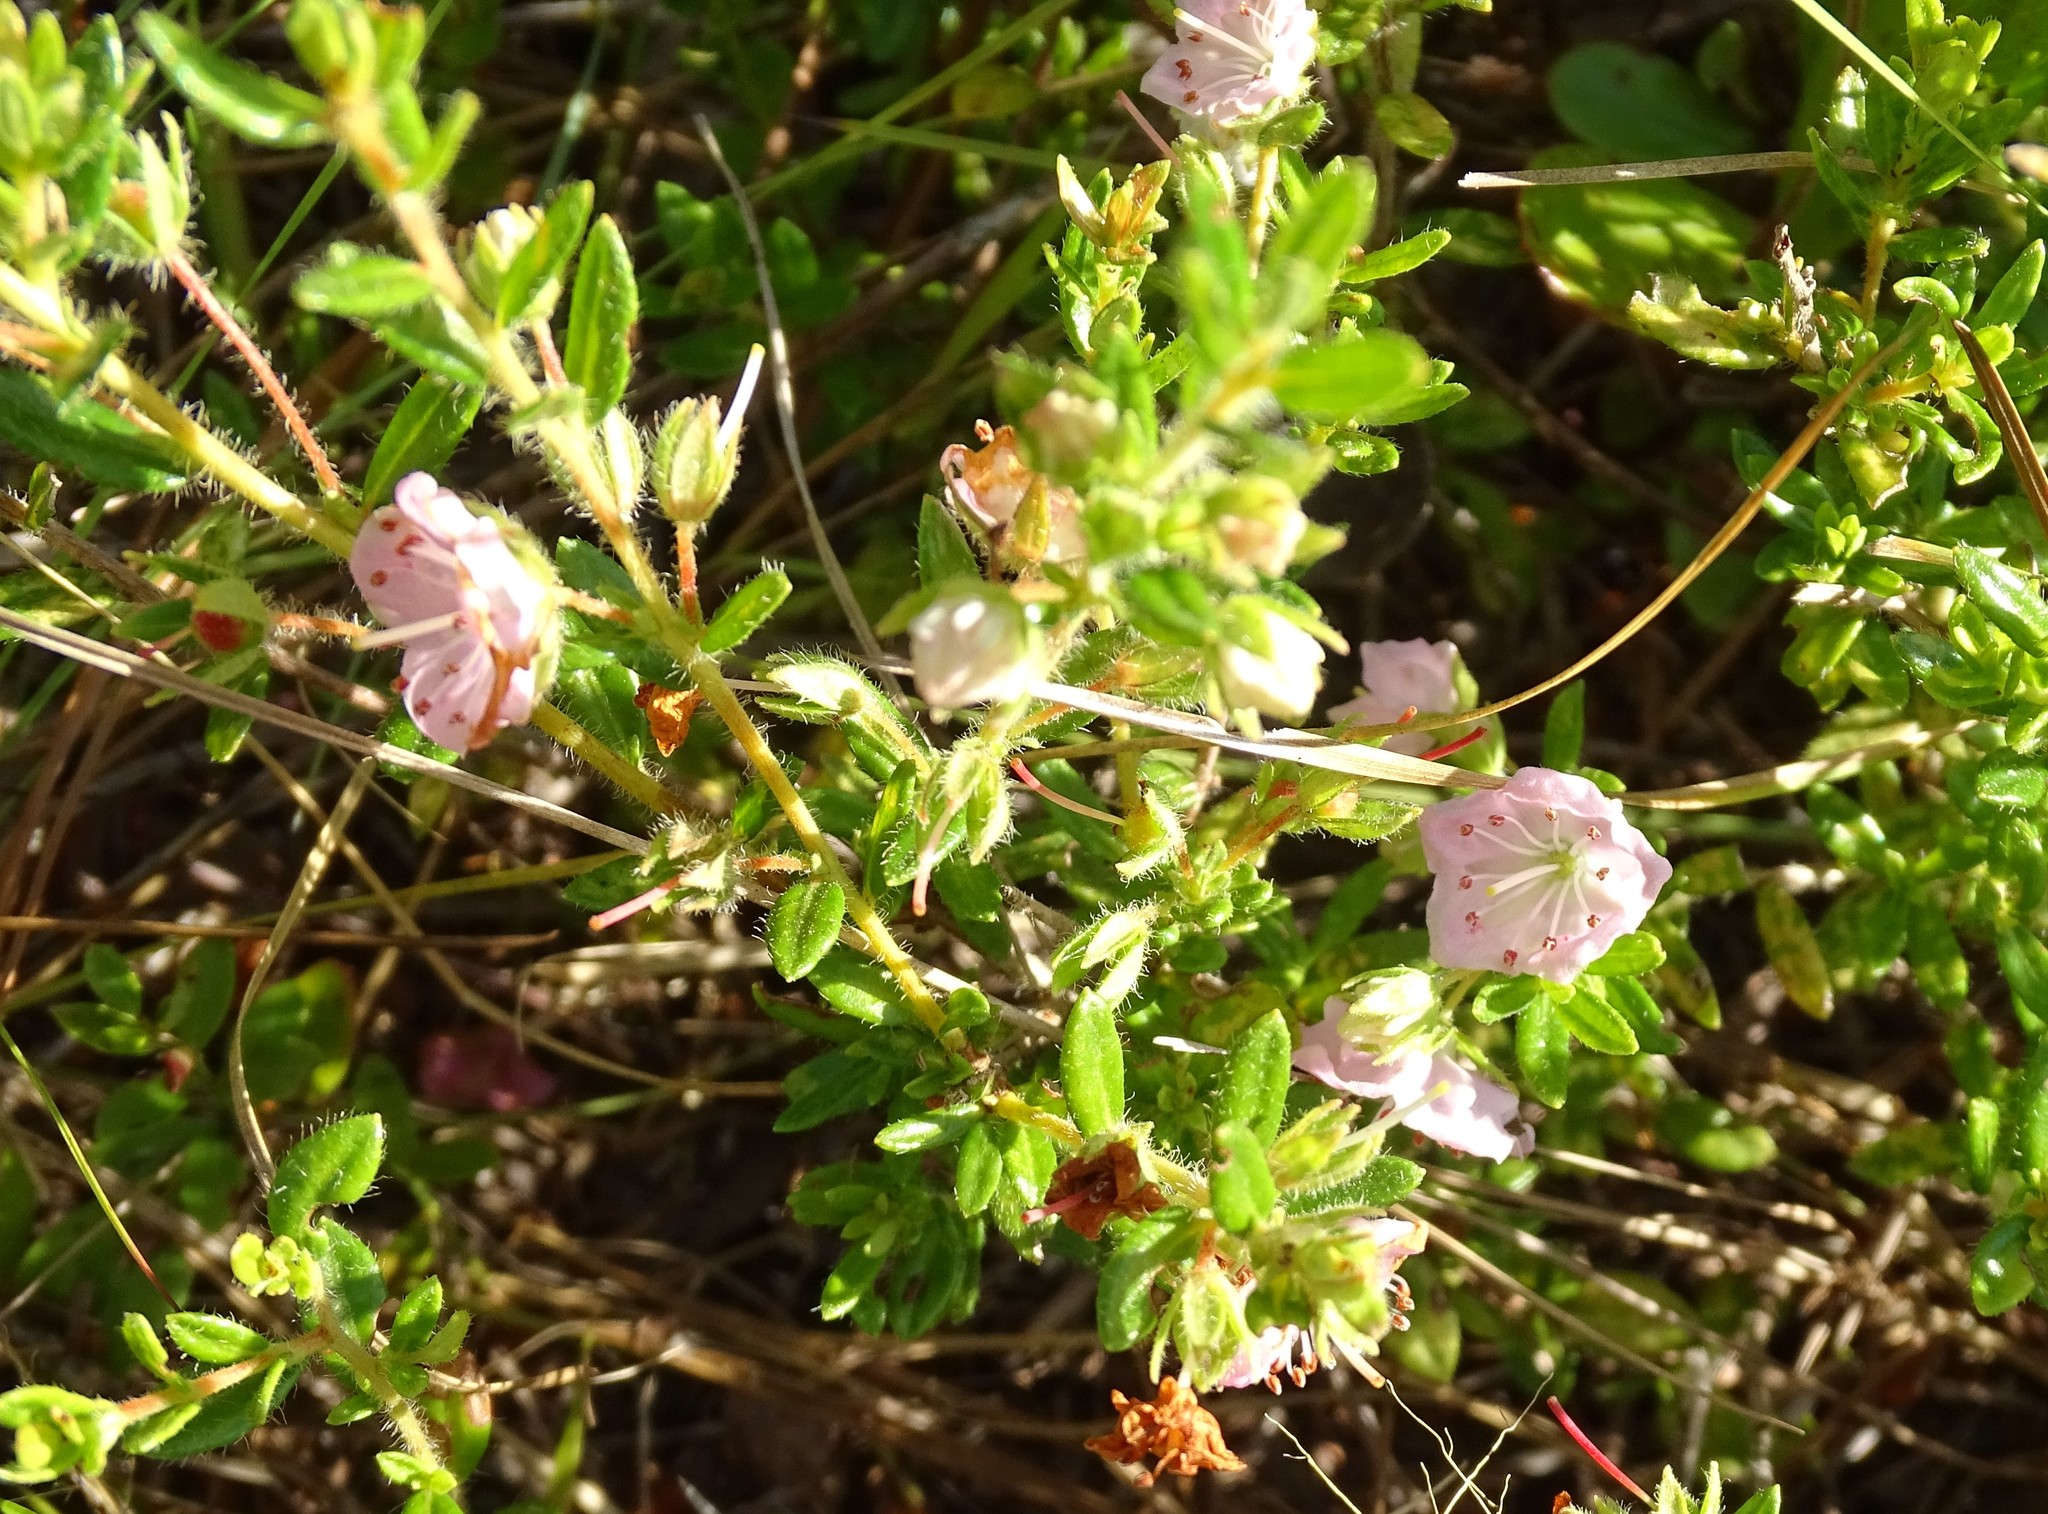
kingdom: Plantae
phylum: Tracheophyta
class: Magnoliopsida
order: Ericales
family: Ericaceae
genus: Kalmia
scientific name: Kalmia hirsuta
